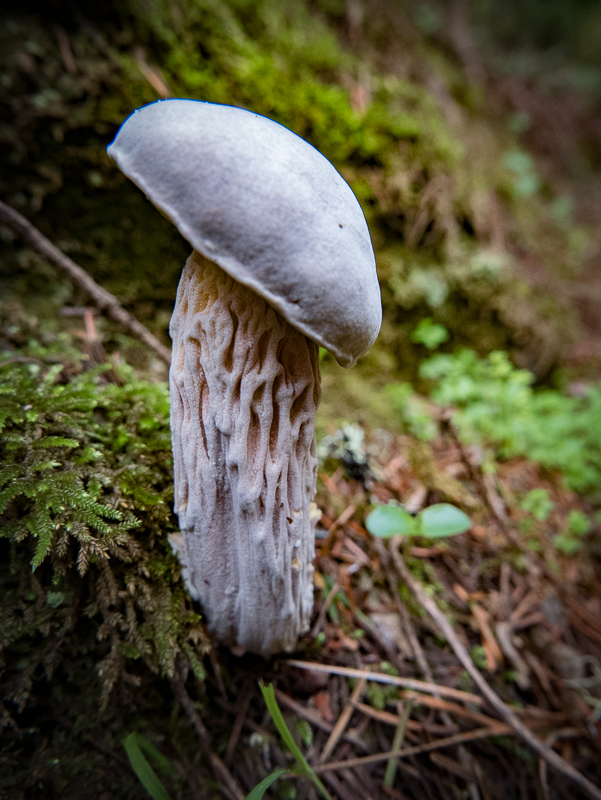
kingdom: Fungi
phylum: Ascomycota
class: Sordariomycetes
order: Hypocreales
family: Hypocreaceae
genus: Hypomyces
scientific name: Hypomyces microspermus
